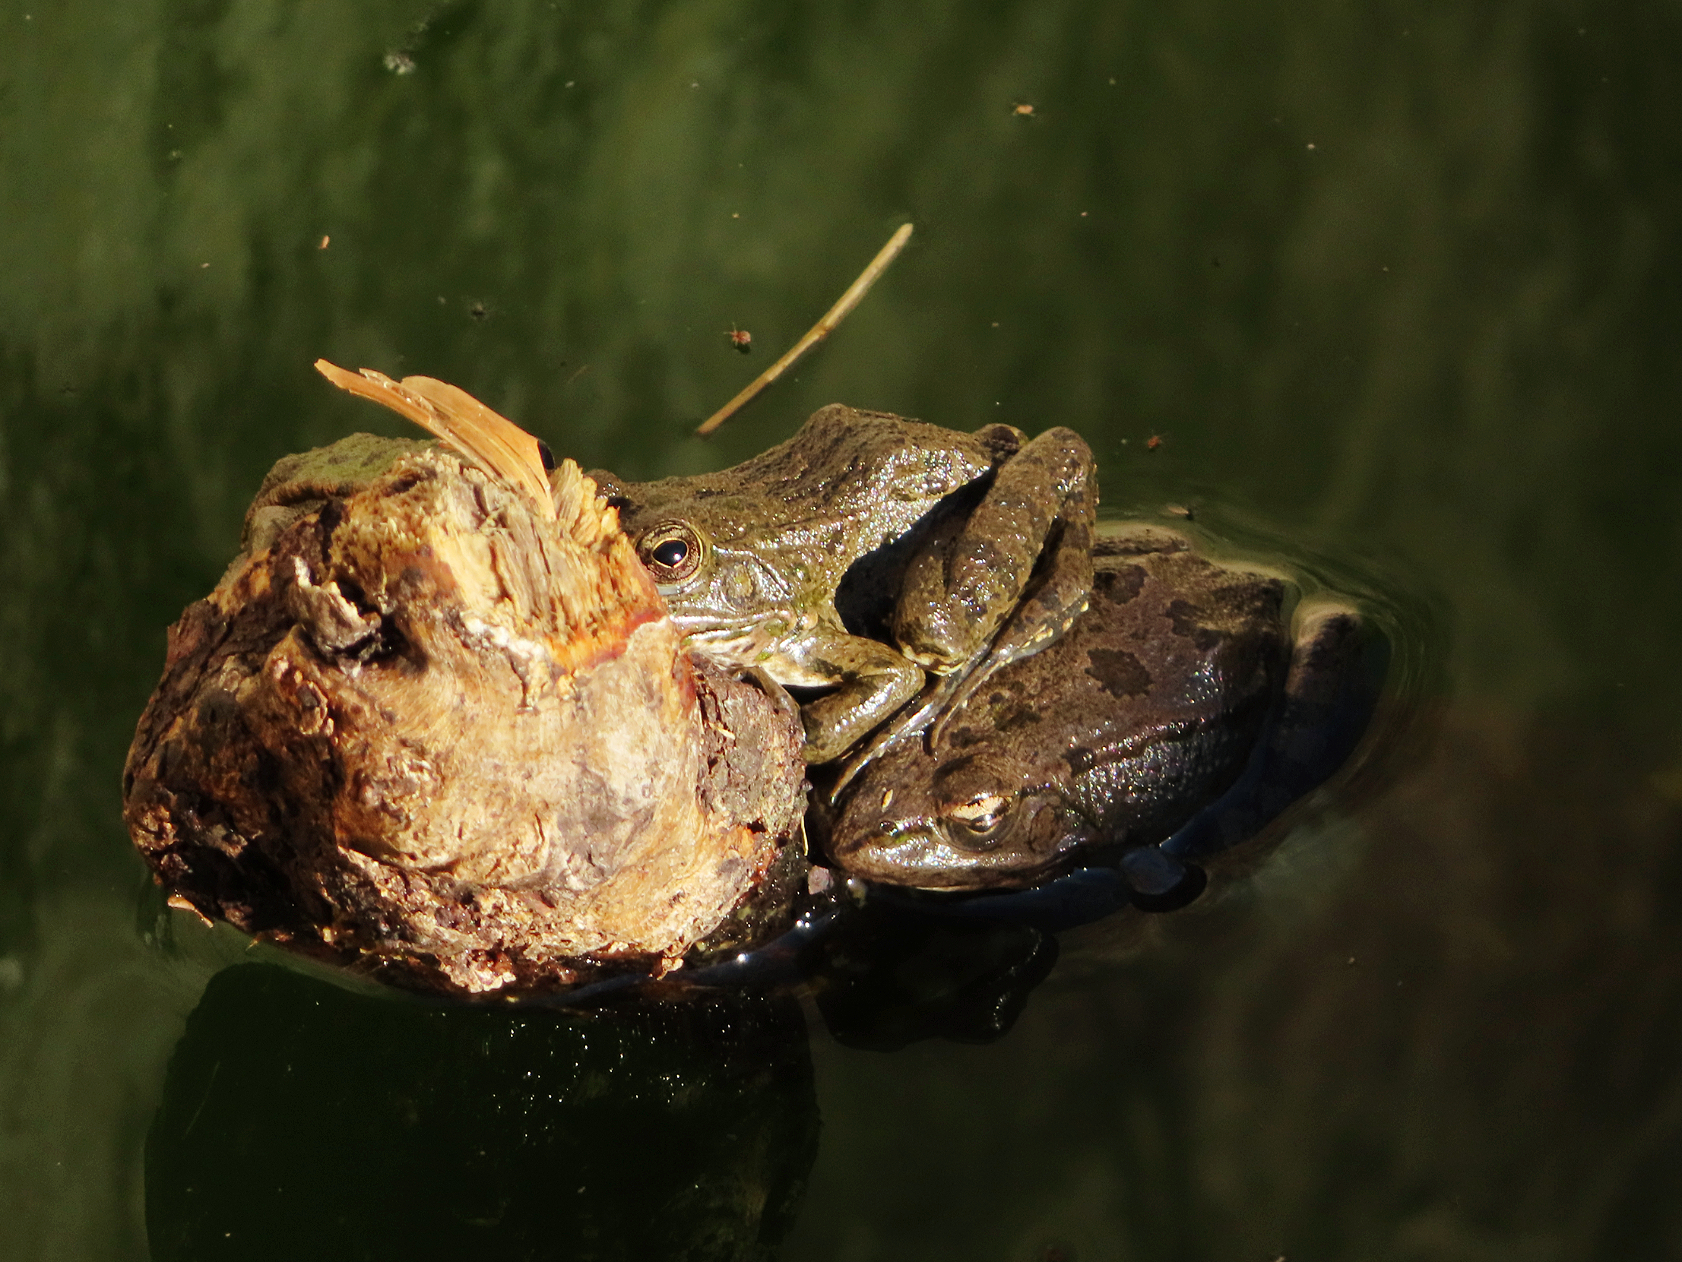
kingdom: Animalia
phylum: Chordata
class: Amphibia
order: Anura
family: Ranidae
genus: Pelophylax
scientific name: Pelophylax ridibundus
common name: Marsh frog
